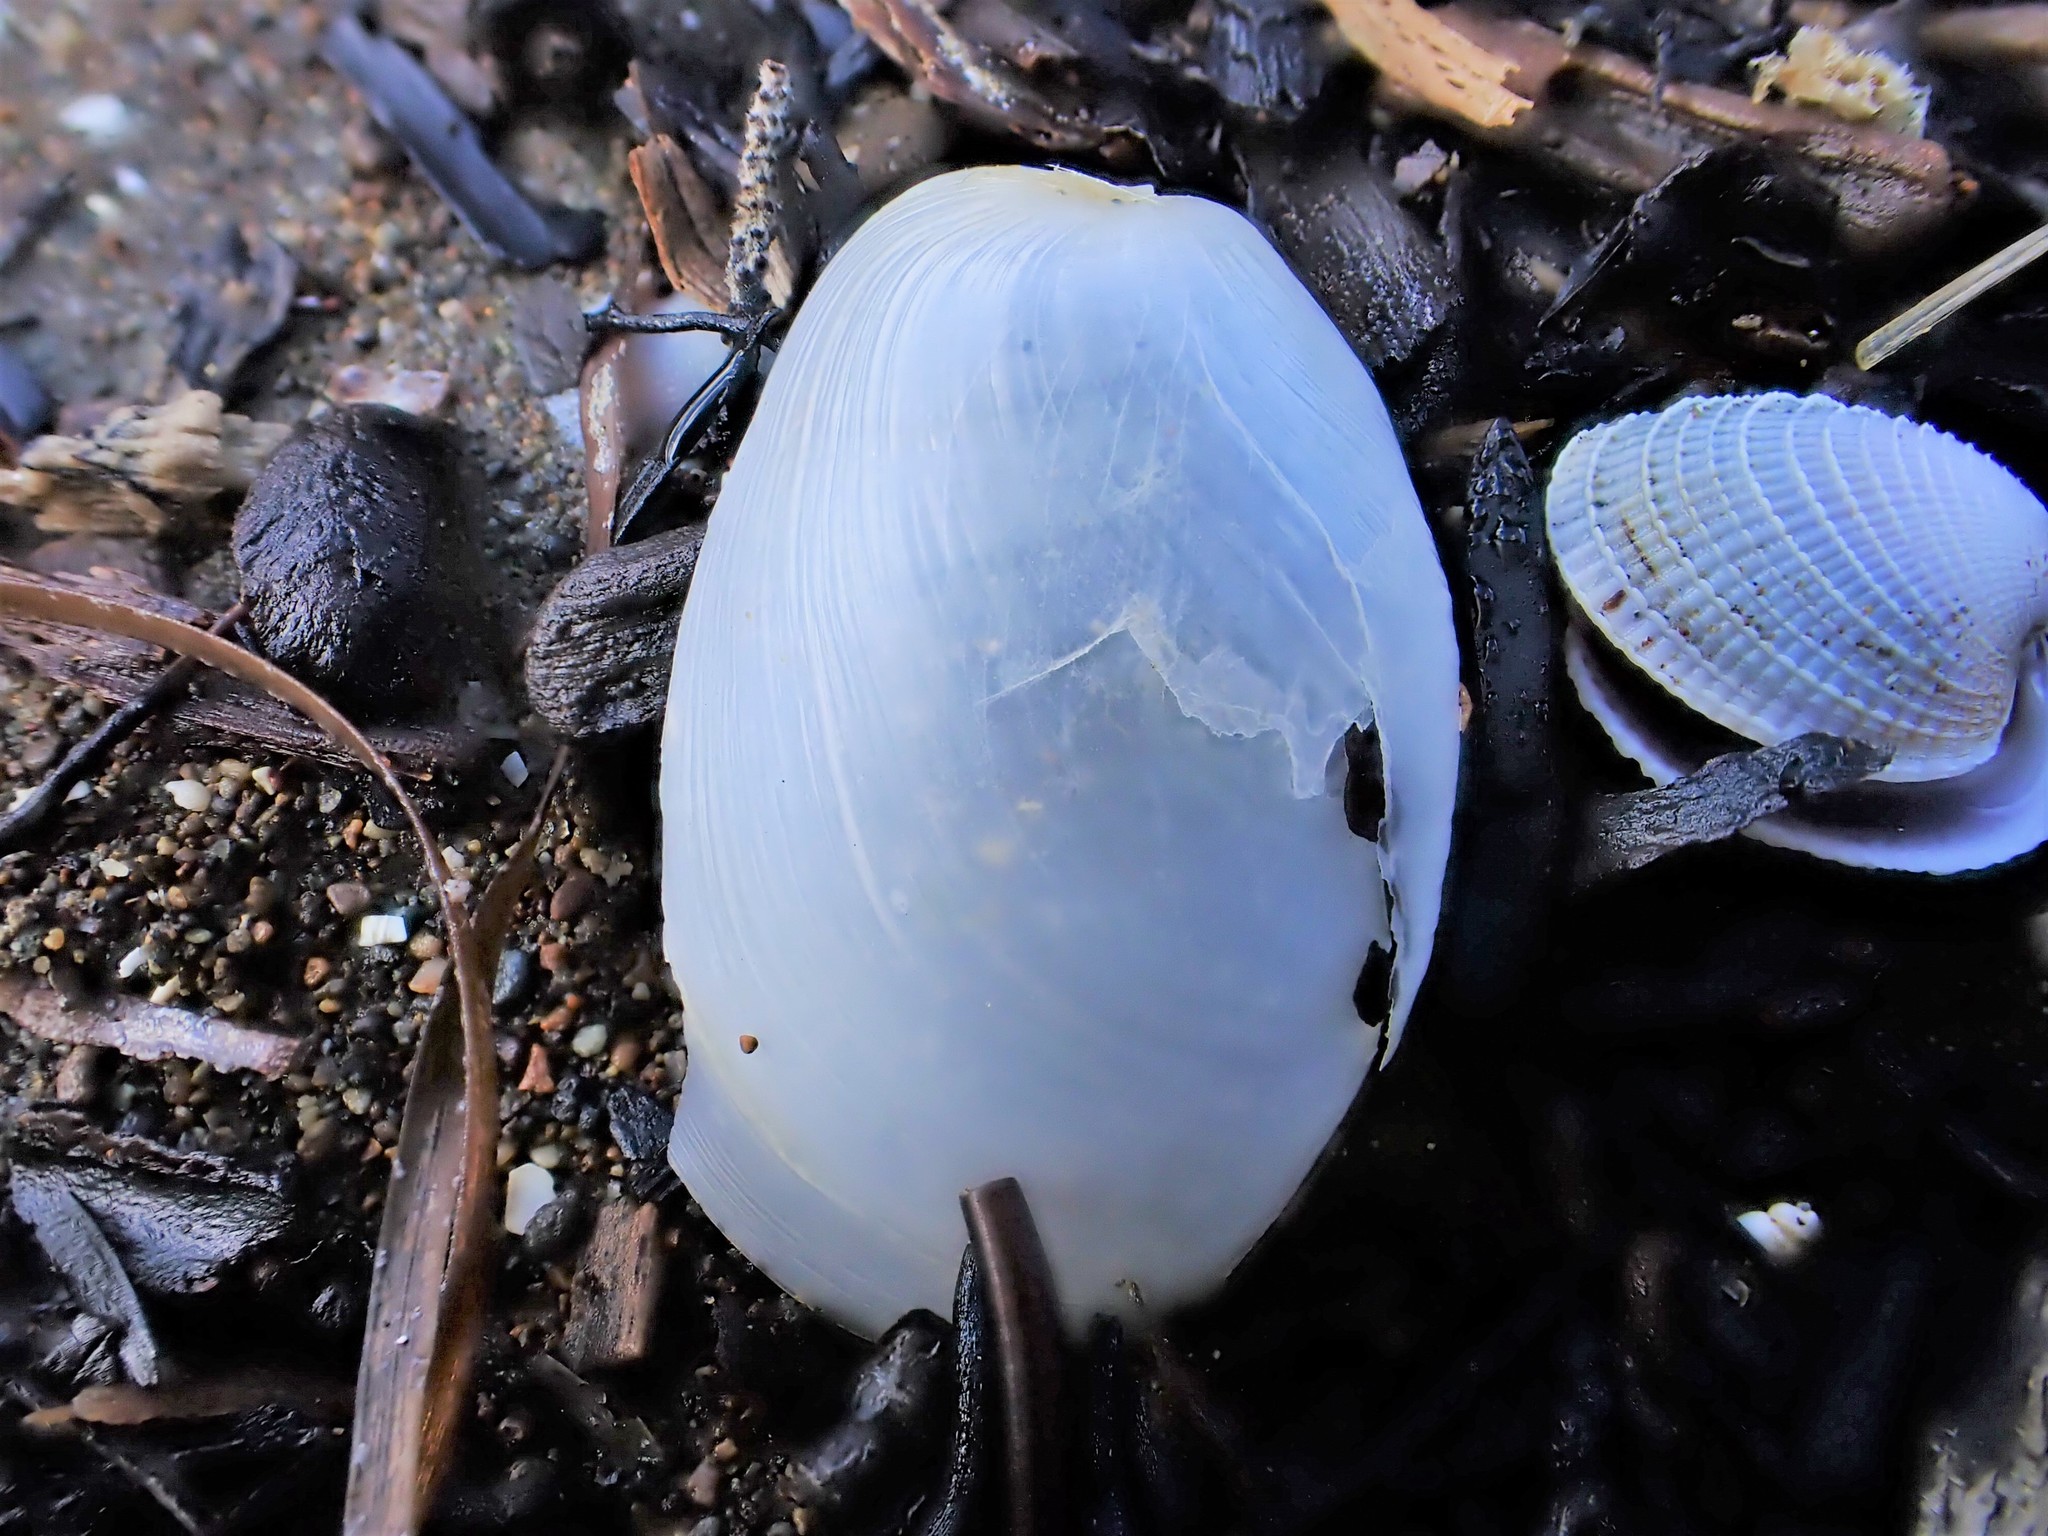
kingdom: Animalia
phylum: Mollusca
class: Gastropoda
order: Cephalaspidea
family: Philinidae
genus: Philine
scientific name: Philine
